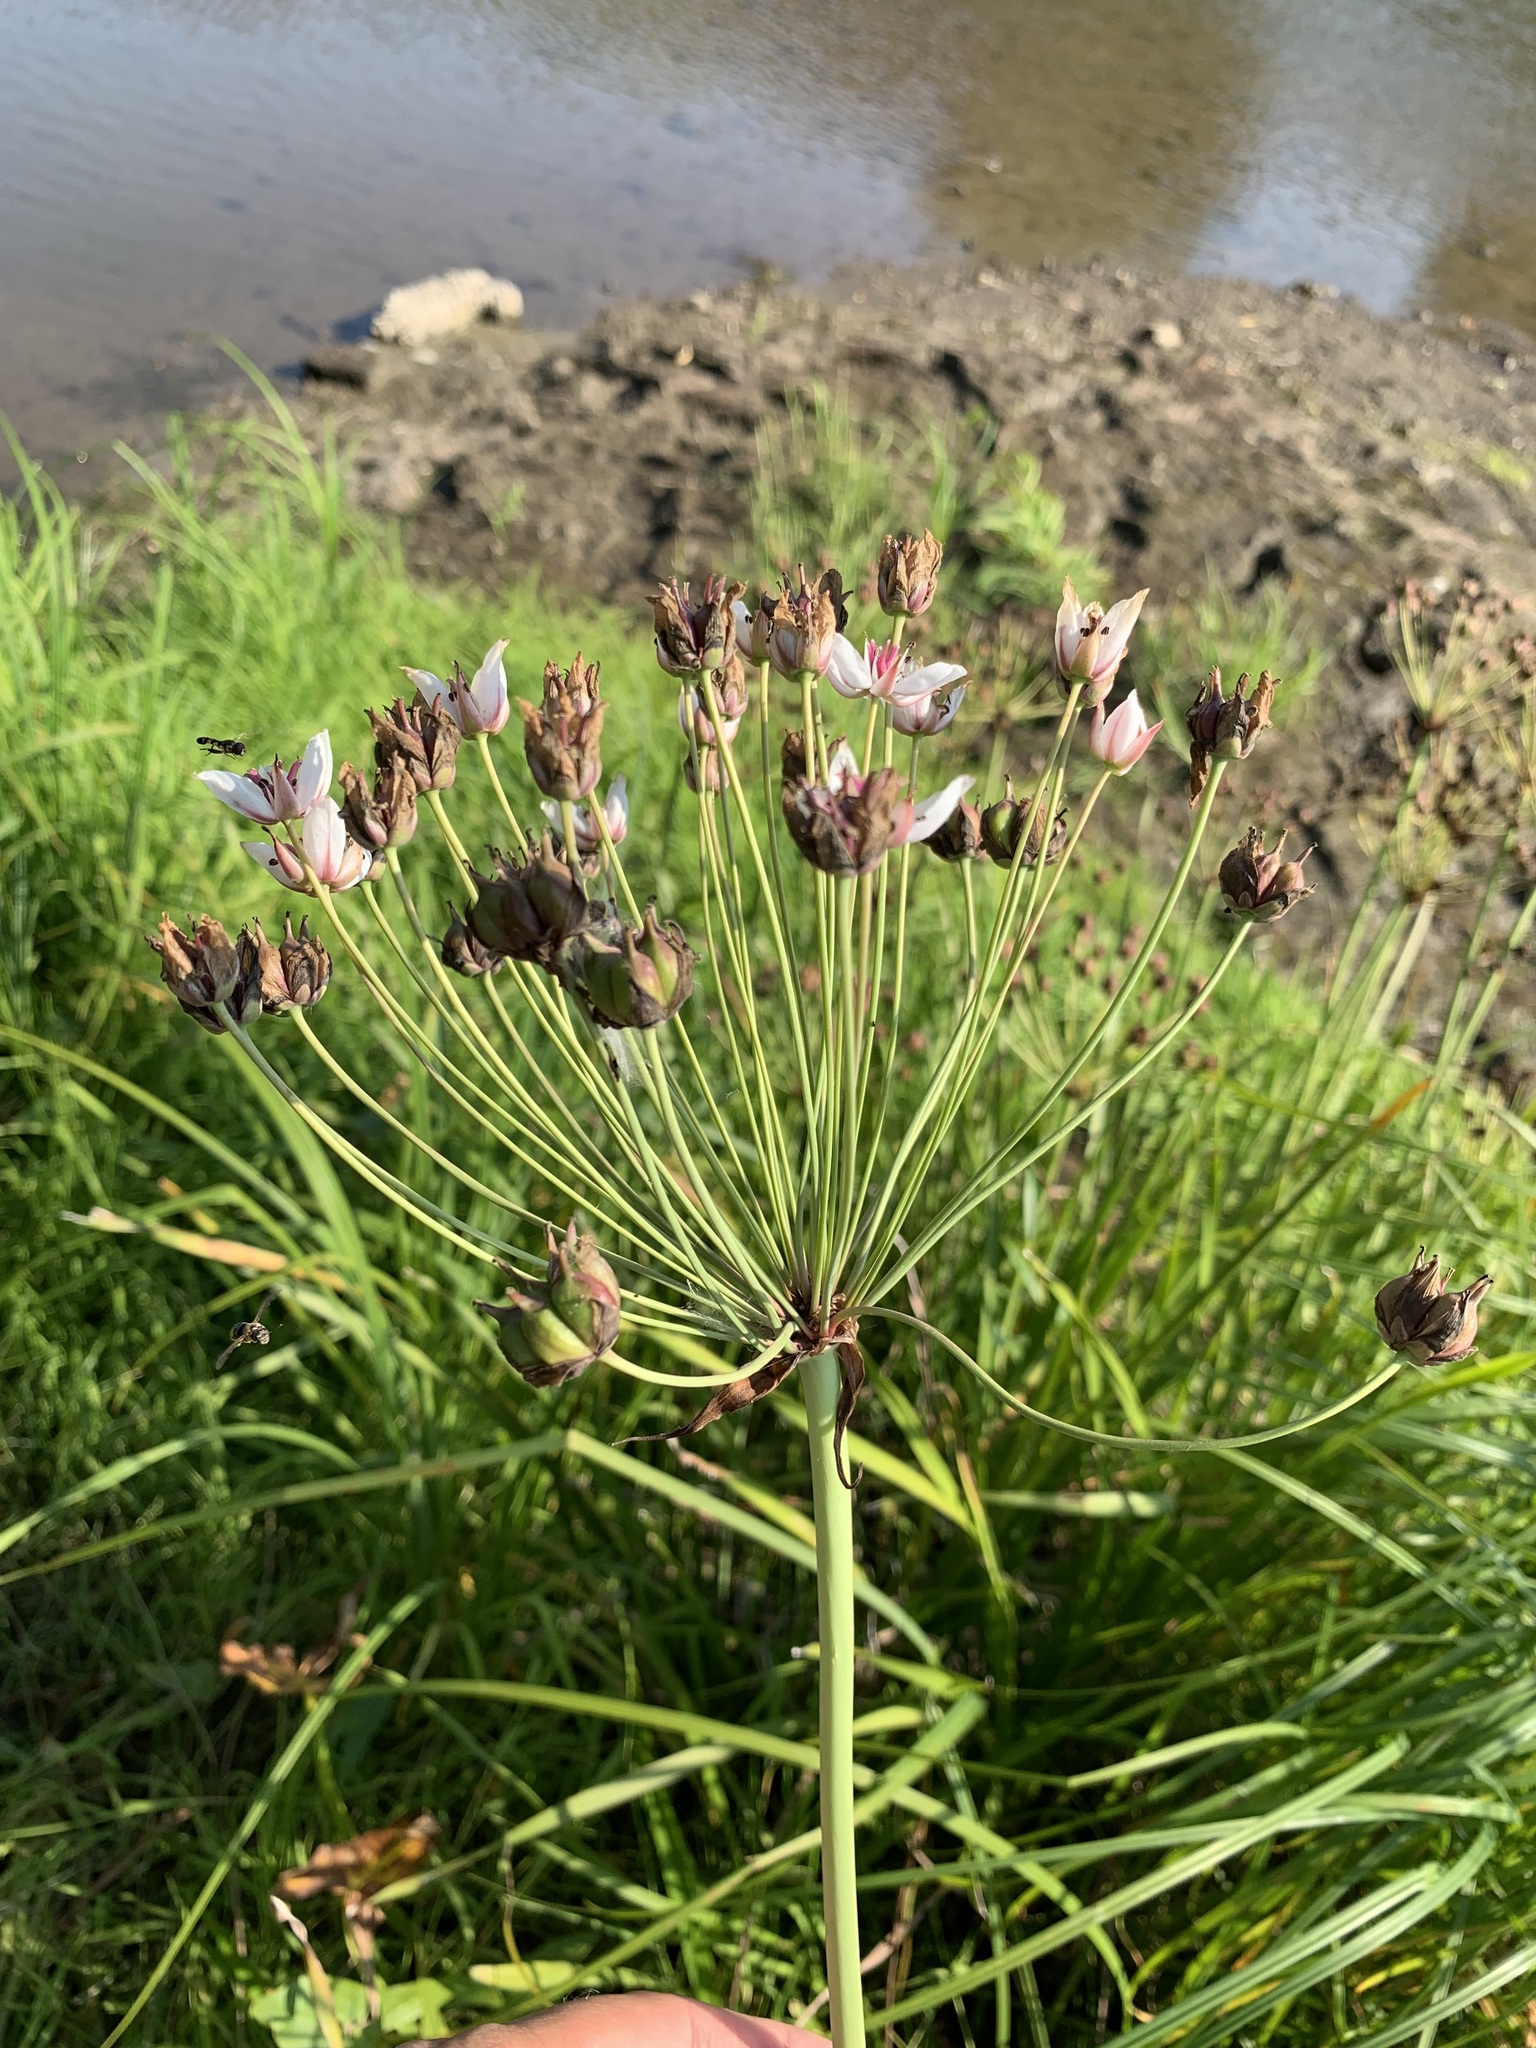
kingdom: Plantae
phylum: Tracheophyta
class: Liliopsida
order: Alismatales
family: Butomaceae
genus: Butomus
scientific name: Butomus umbellatus
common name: Flowering-rush
